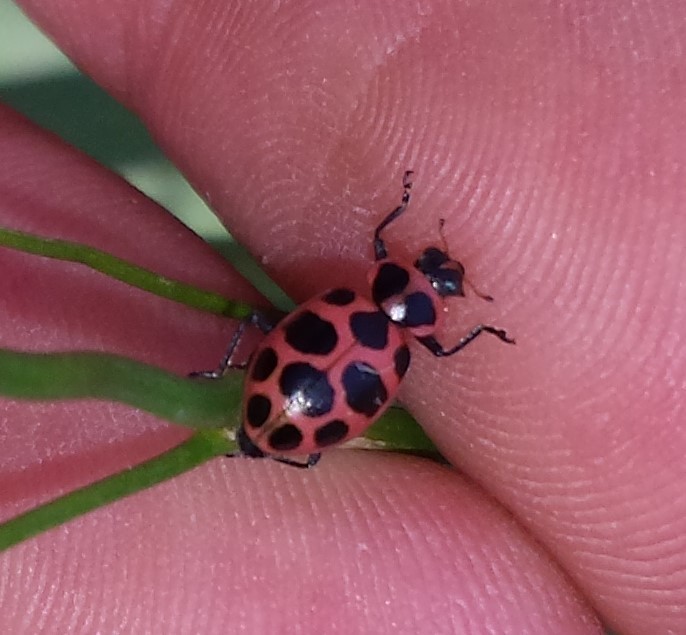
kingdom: Animalia
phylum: Arthropoda
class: Insecta
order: Coleoptera
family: Coccinellidae
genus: Coleomegilla
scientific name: Coleomegilla maculata
